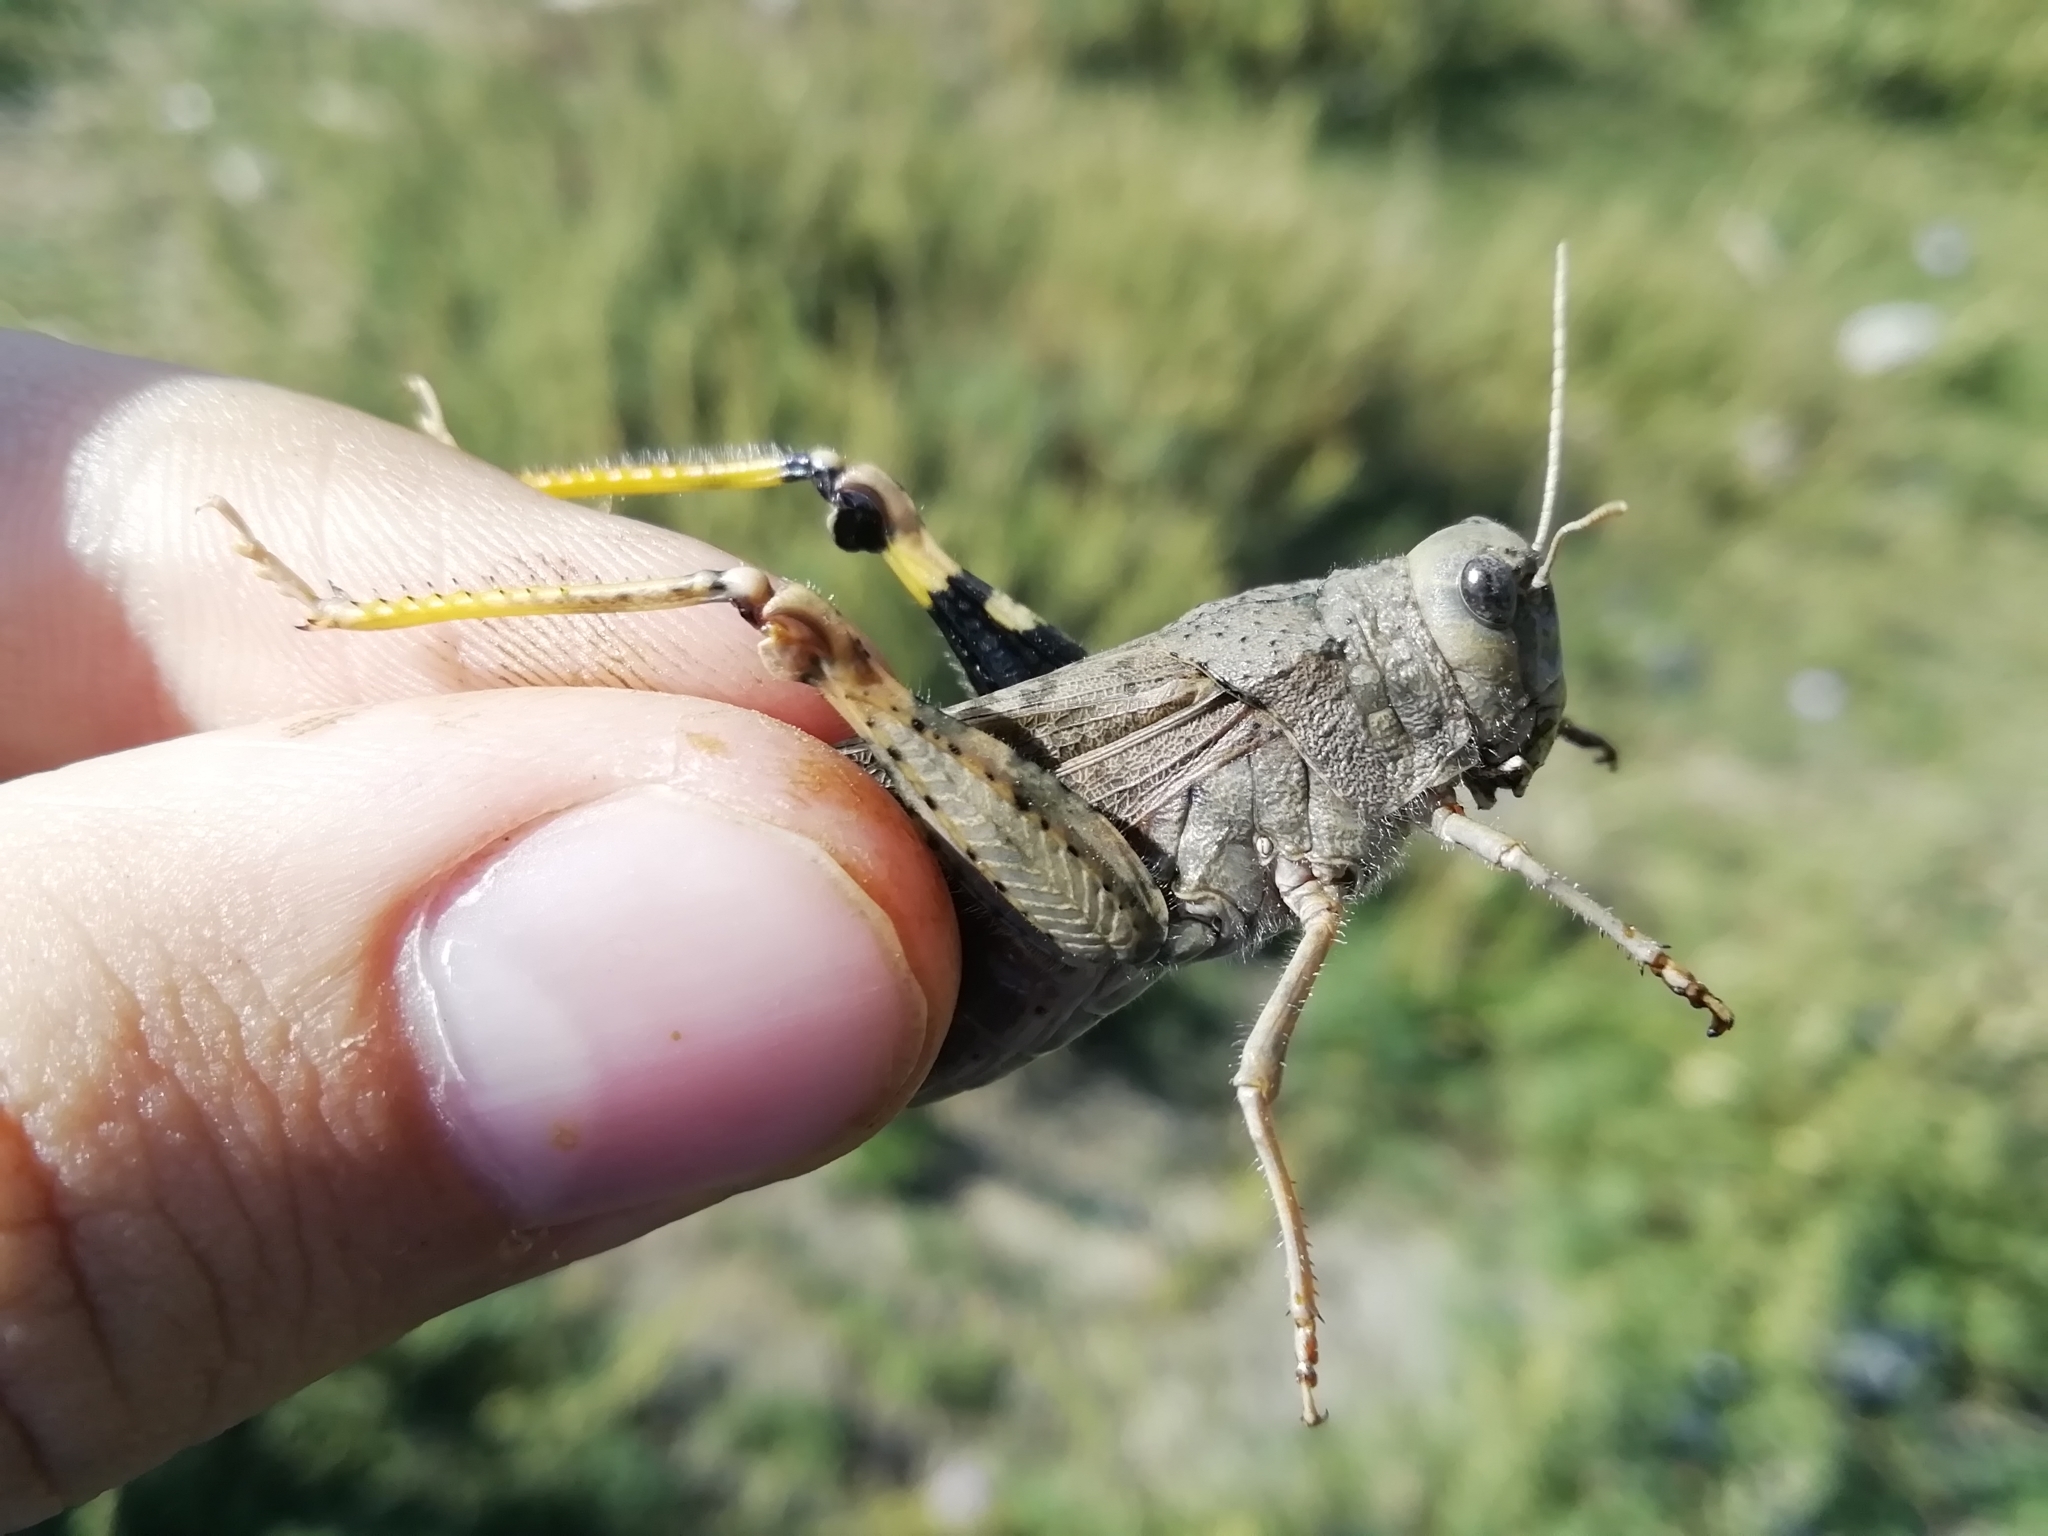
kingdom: Animalia
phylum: Arthropoda
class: Insecta
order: Orthoptera
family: Acrididae
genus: Bryodemella
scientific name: Bryodemella holdereri
